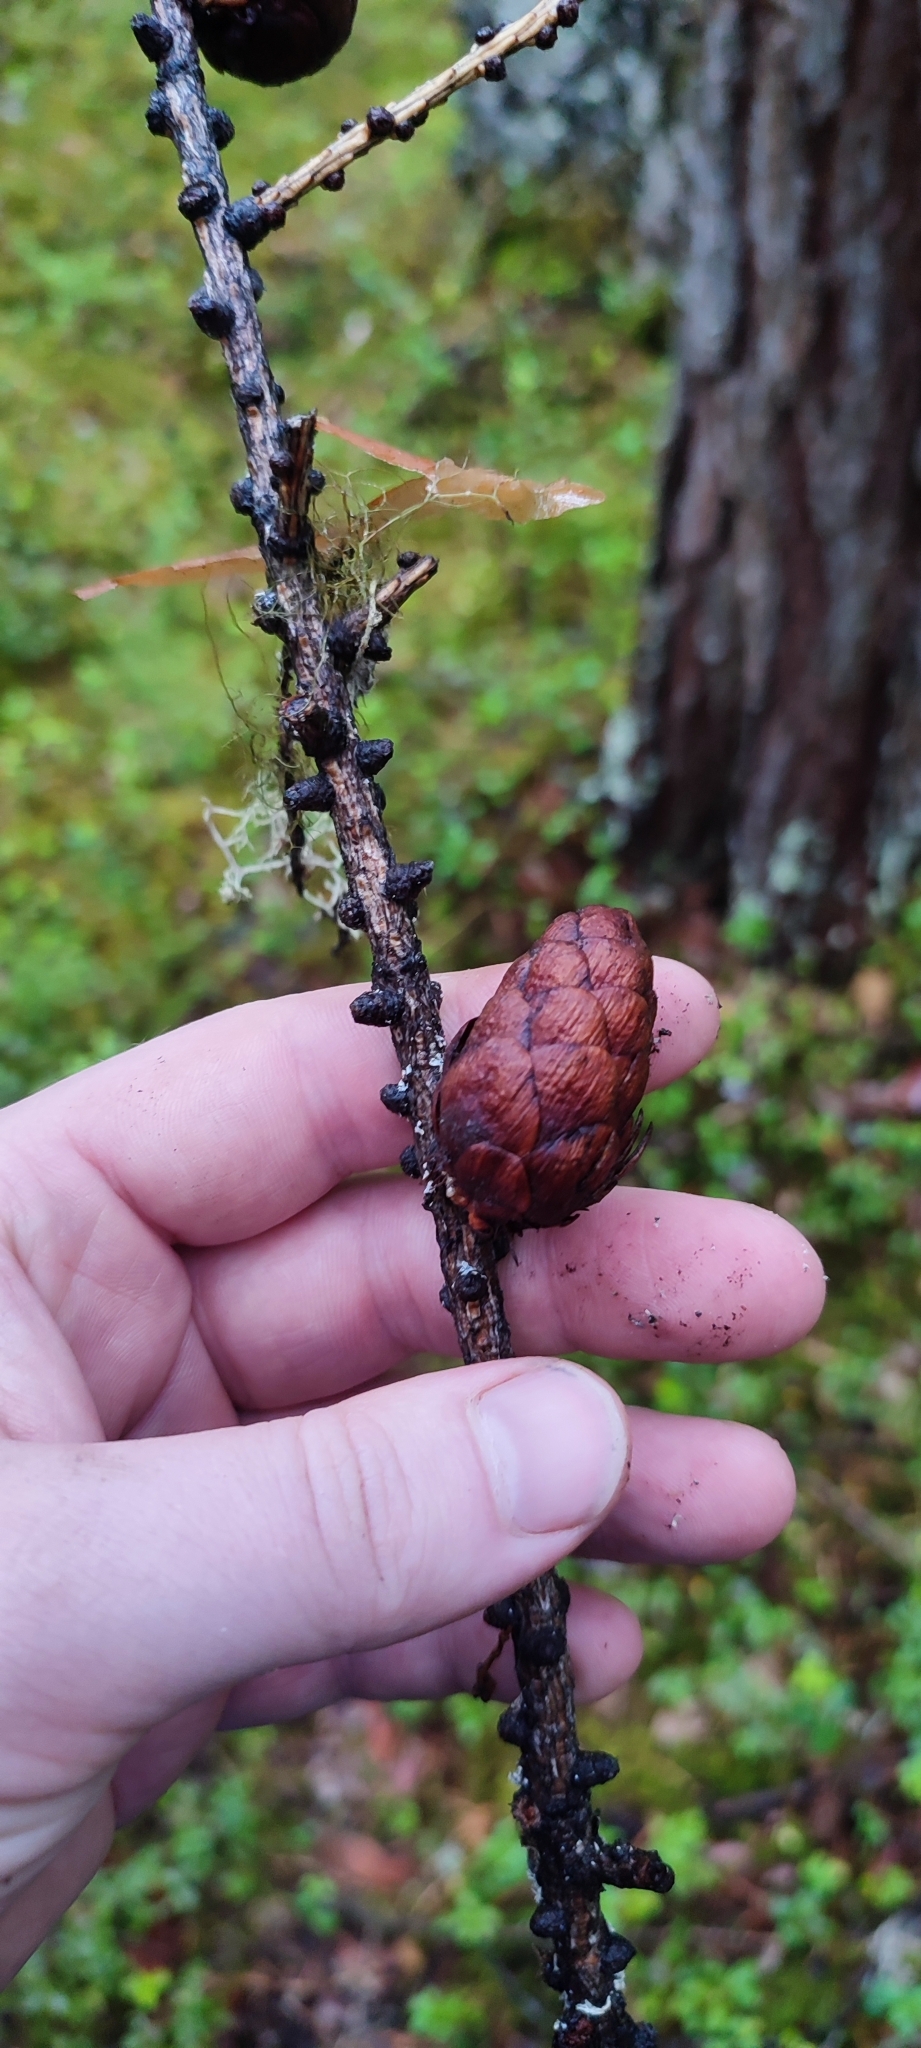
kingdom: Plantae
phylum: Tracheophyta
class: Pinopsida
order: Pinales
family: Pinaceae
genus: Larix
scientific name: Larix sibirica
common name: Siberian larch
